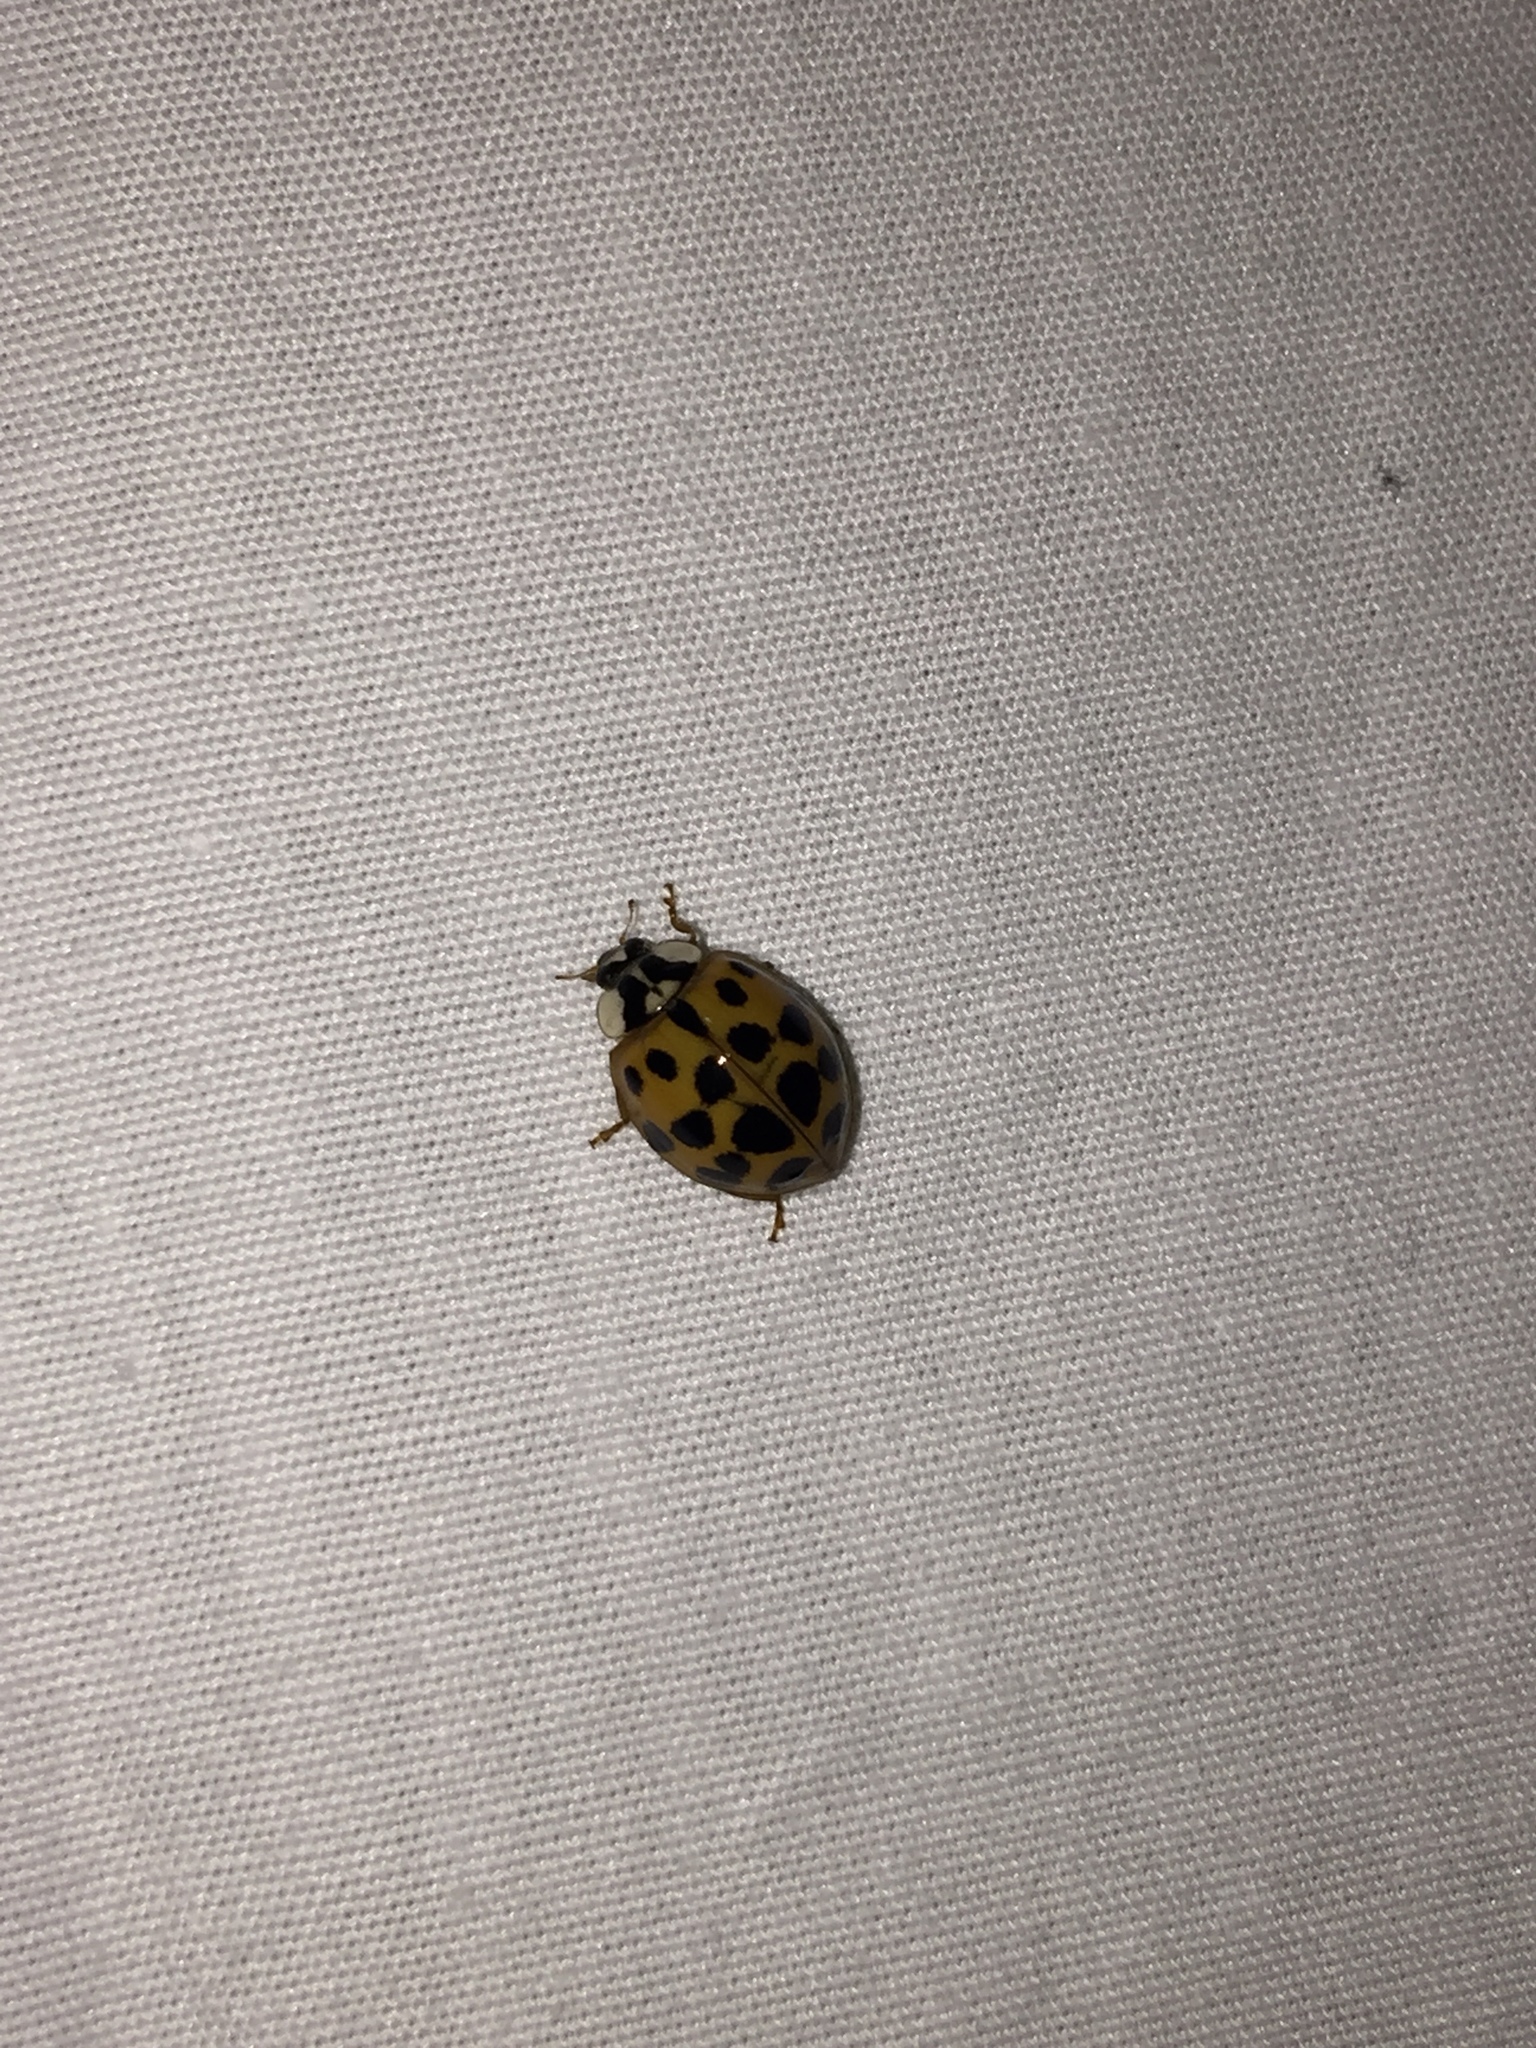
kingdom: Animalia
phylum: Arthropoda
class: Insecta
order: Coleoptera
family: Coccinellidae
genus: Harmonia
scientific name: Harmonia axyridis
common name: Harlequin ladybird
